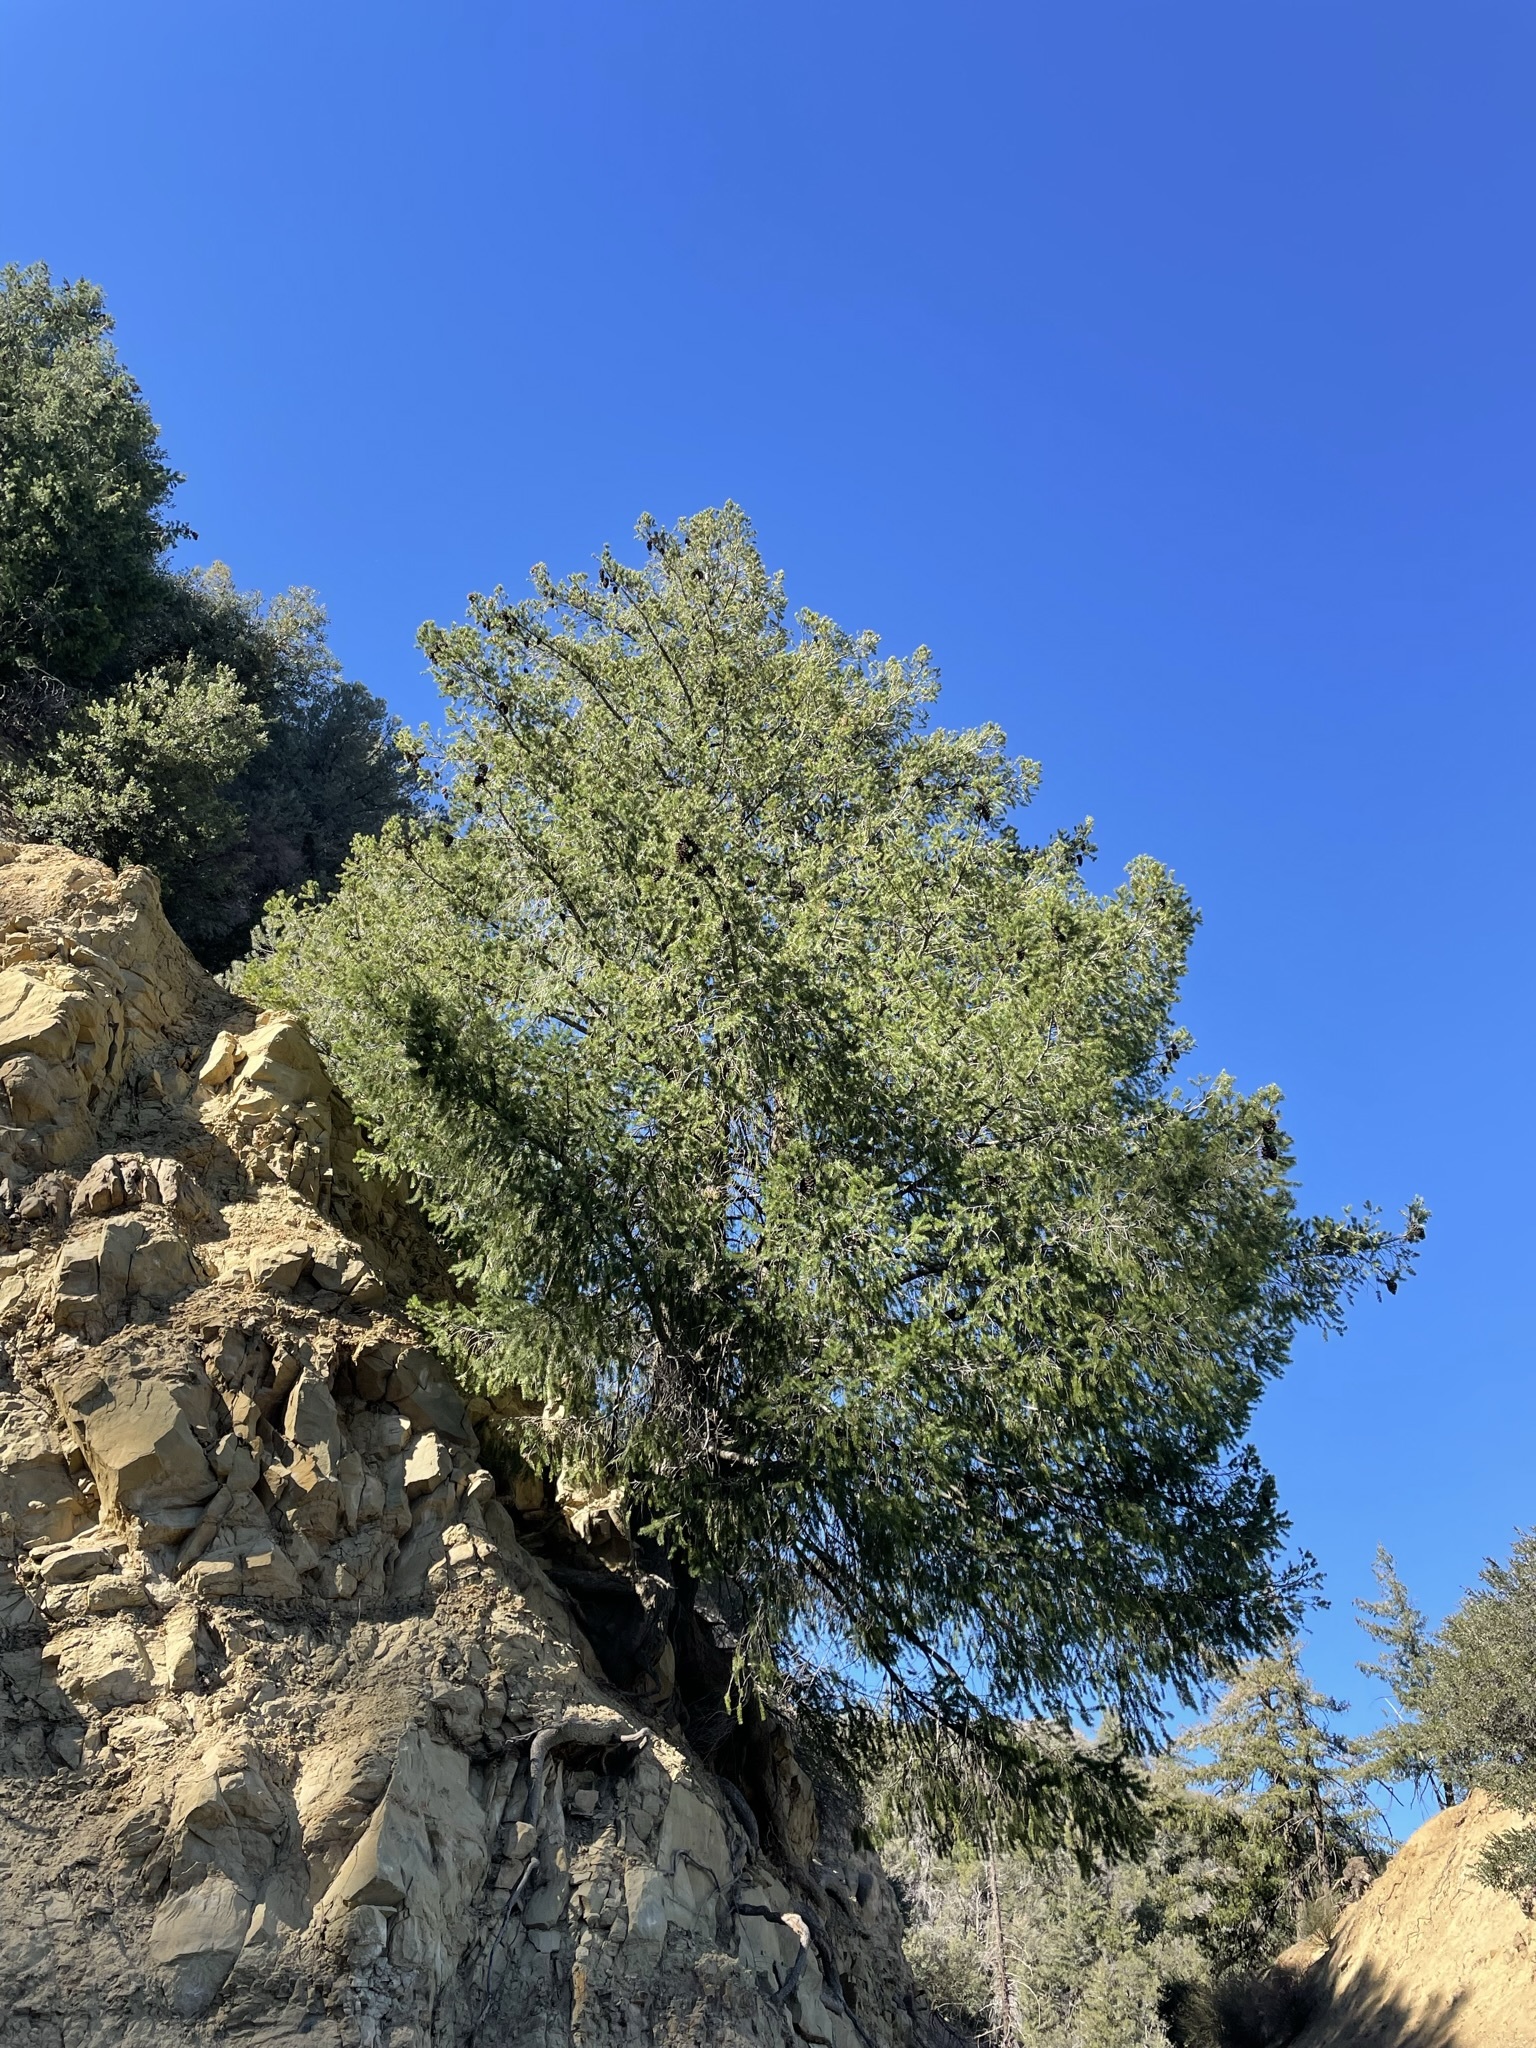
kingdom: Plantae
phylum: Tracheophyta
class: Pinopsida
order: Pinales
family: Pinaceae
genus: Pseudotsuga
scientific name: Pseudotsuga macrocarpa
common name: Big-cone douglas-fir
